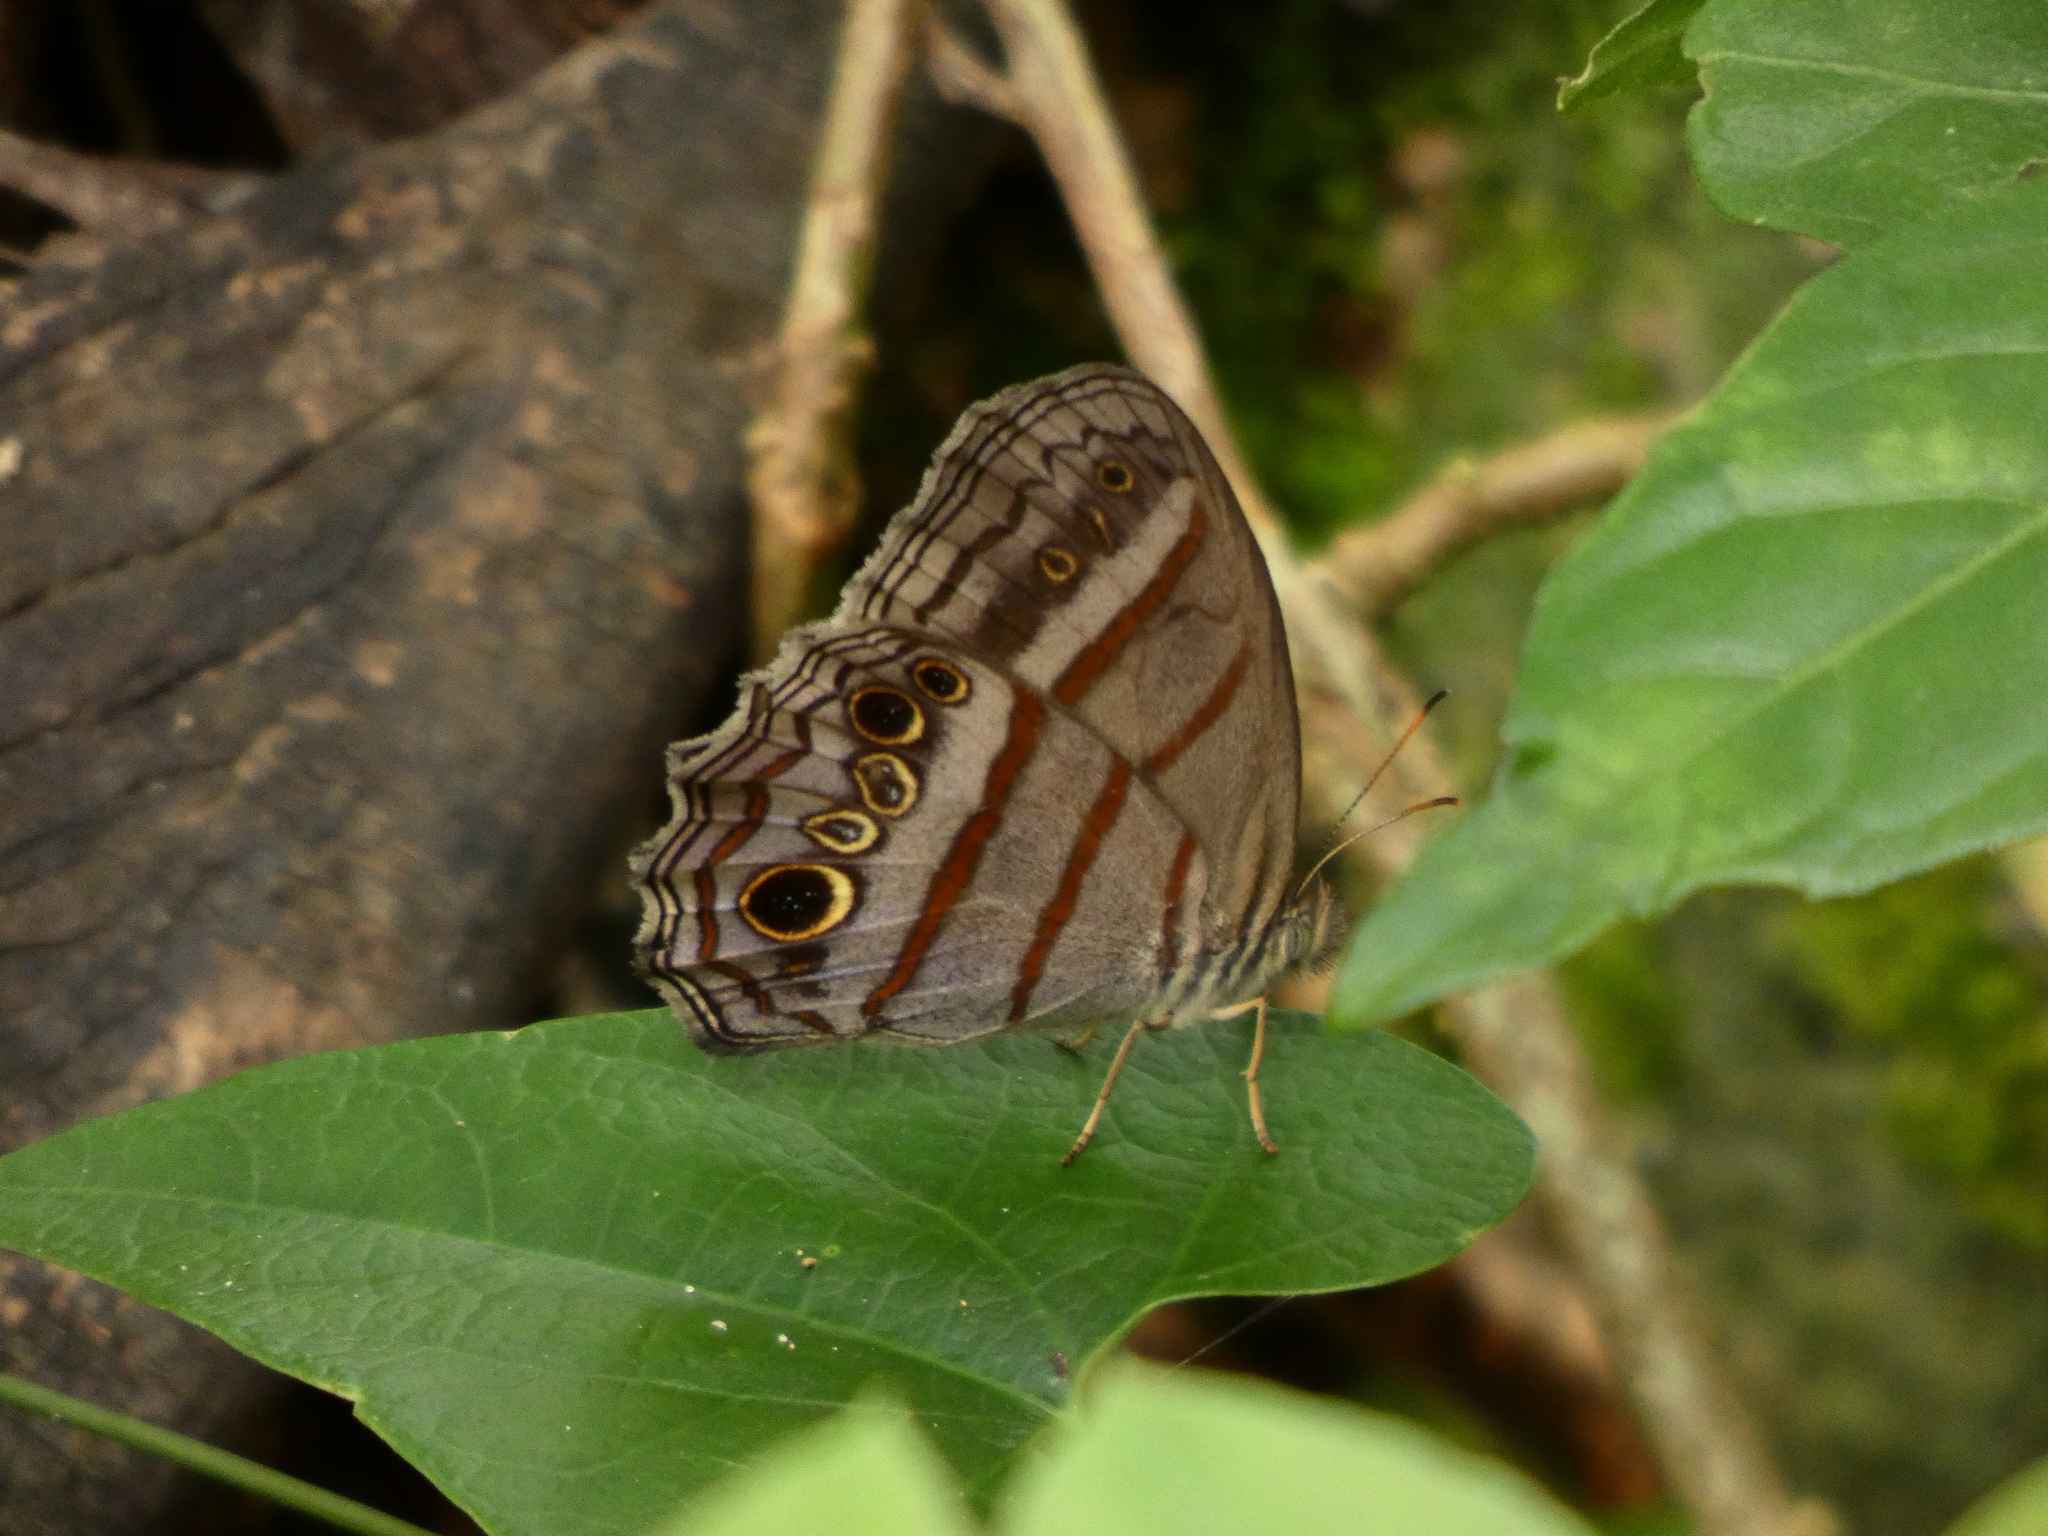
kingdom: Animalia
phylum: Arthropoda
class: Insecta
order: Lepidoptera
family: Nymphalidae
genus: Magneuptychia
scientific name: Magneuptychia libye
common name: Blue-gray satyr
